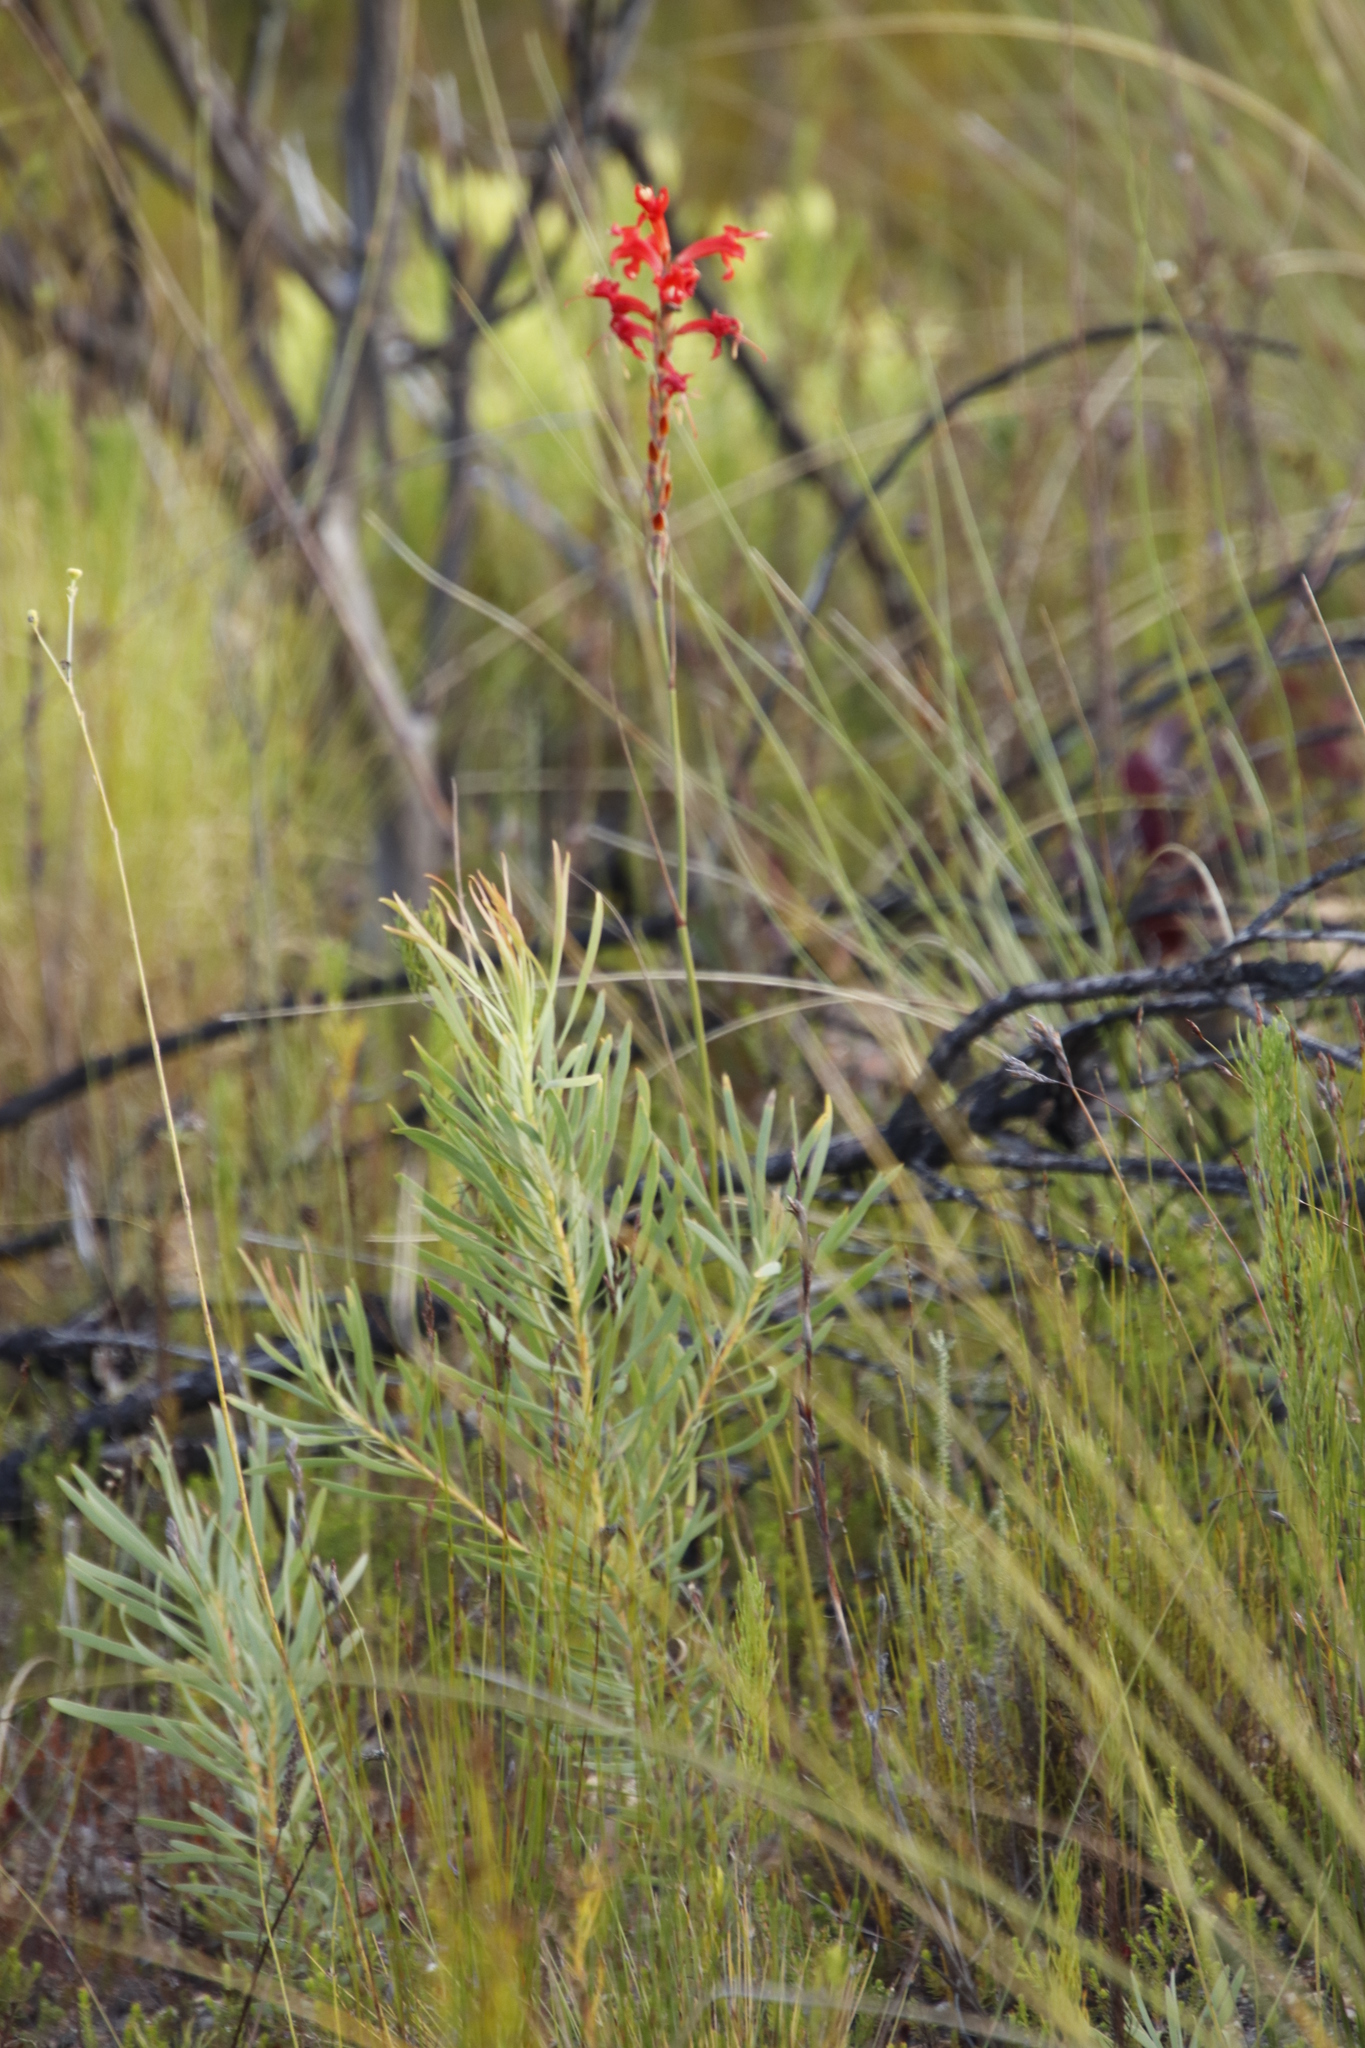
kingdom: Plantae
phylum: Tracheophyta
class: Liliopsida
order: Asparagales
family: Iridaceae
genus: Tritoniopsis
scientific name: Tritoniopsis triticea
